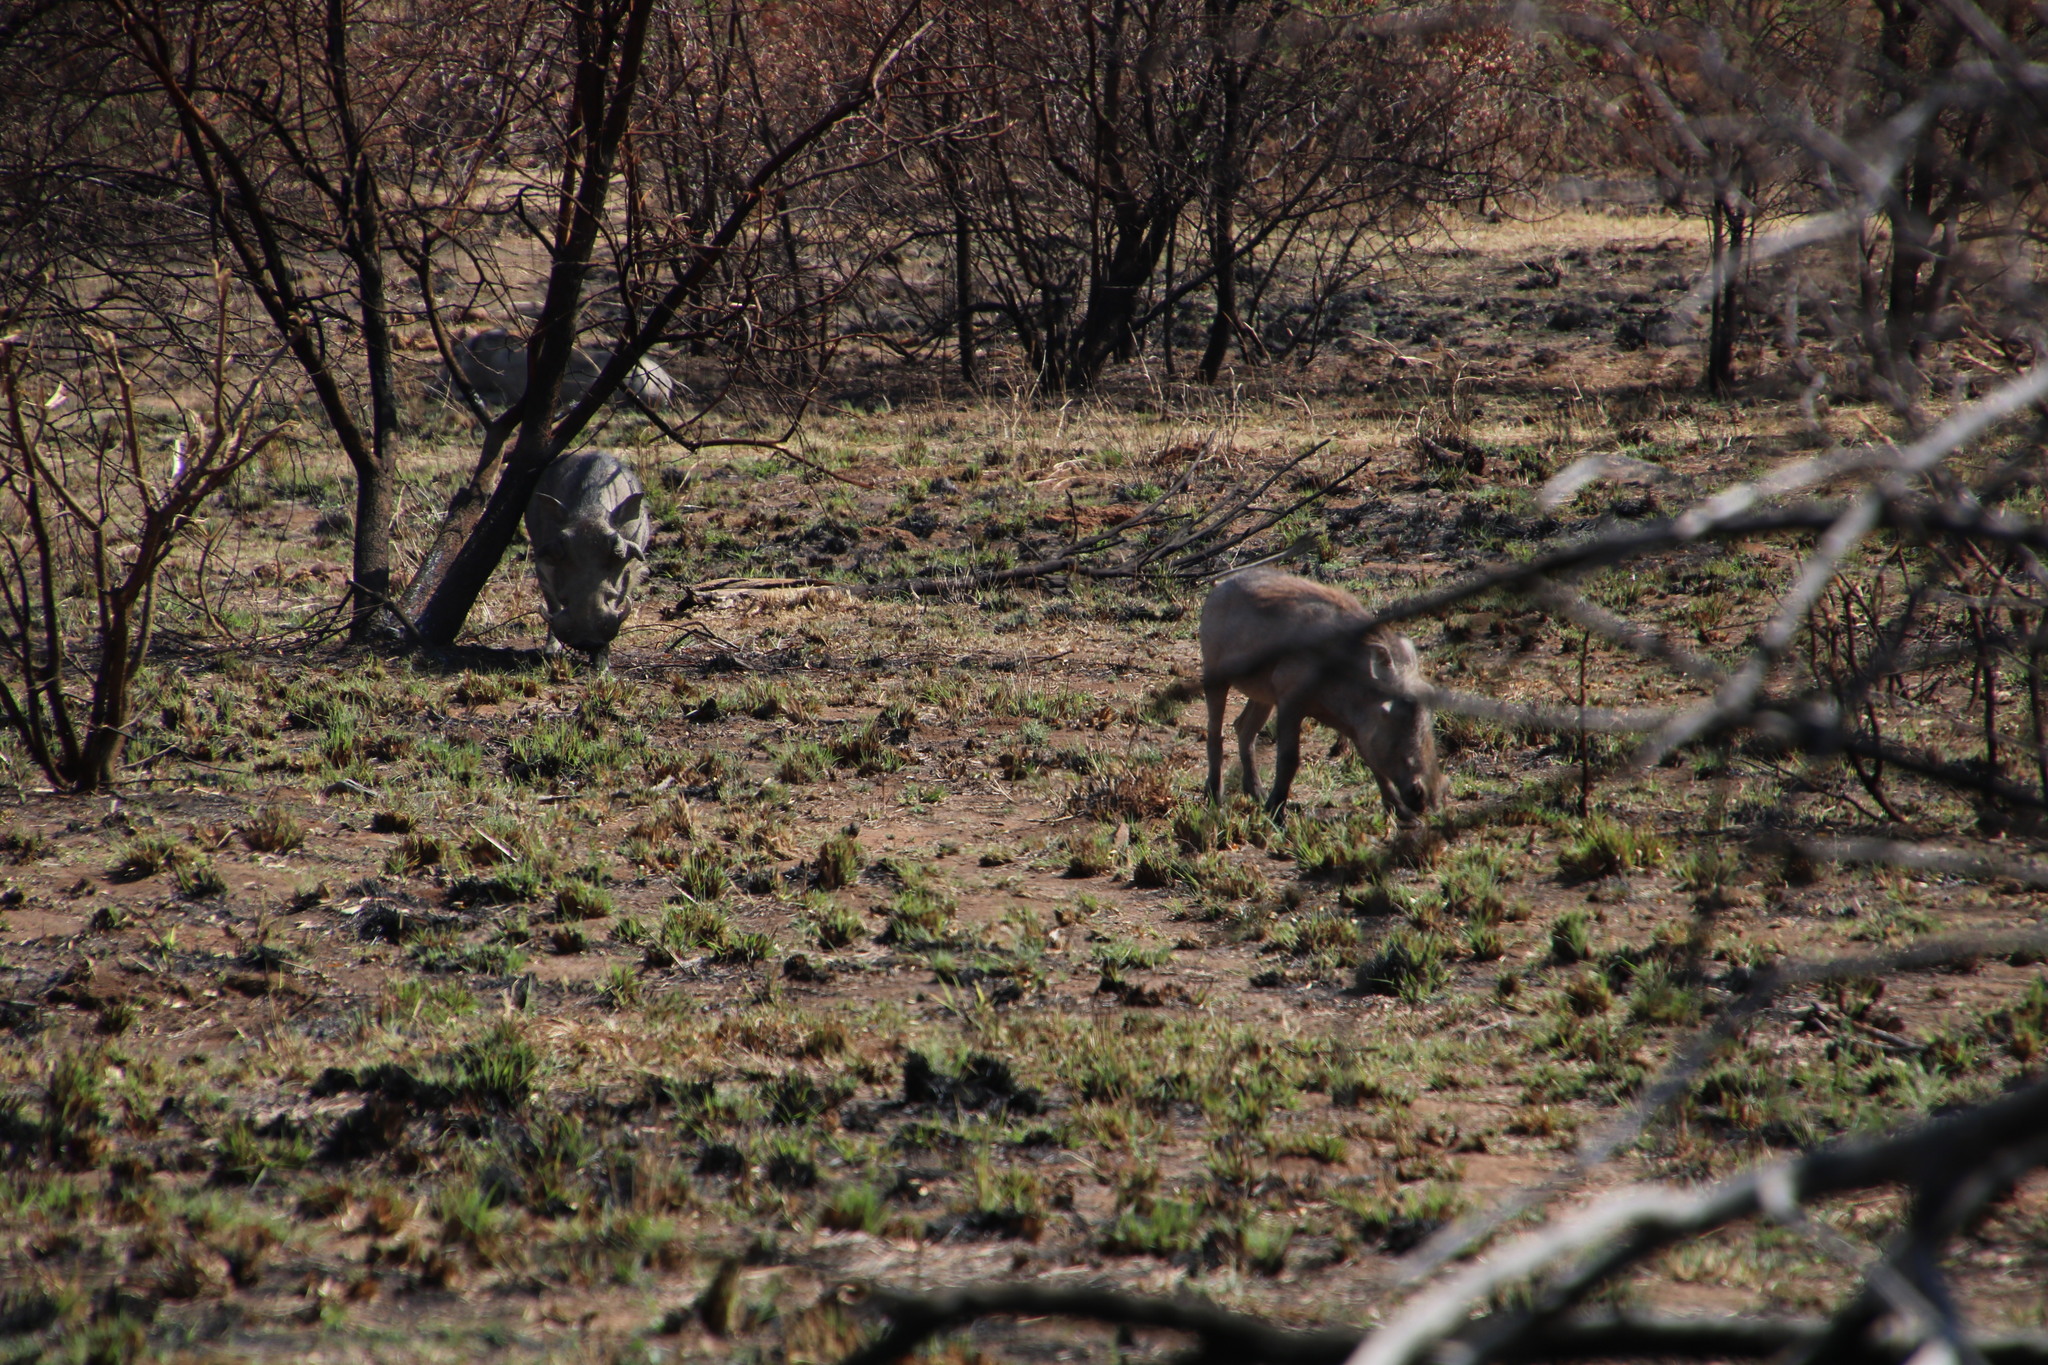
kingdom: Animalia
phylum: Chordata
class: Mammalia
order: Artiodactyla
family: Suidae
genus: Phacochoerus
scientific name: Phacochoerus africanus
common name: Common warthog
